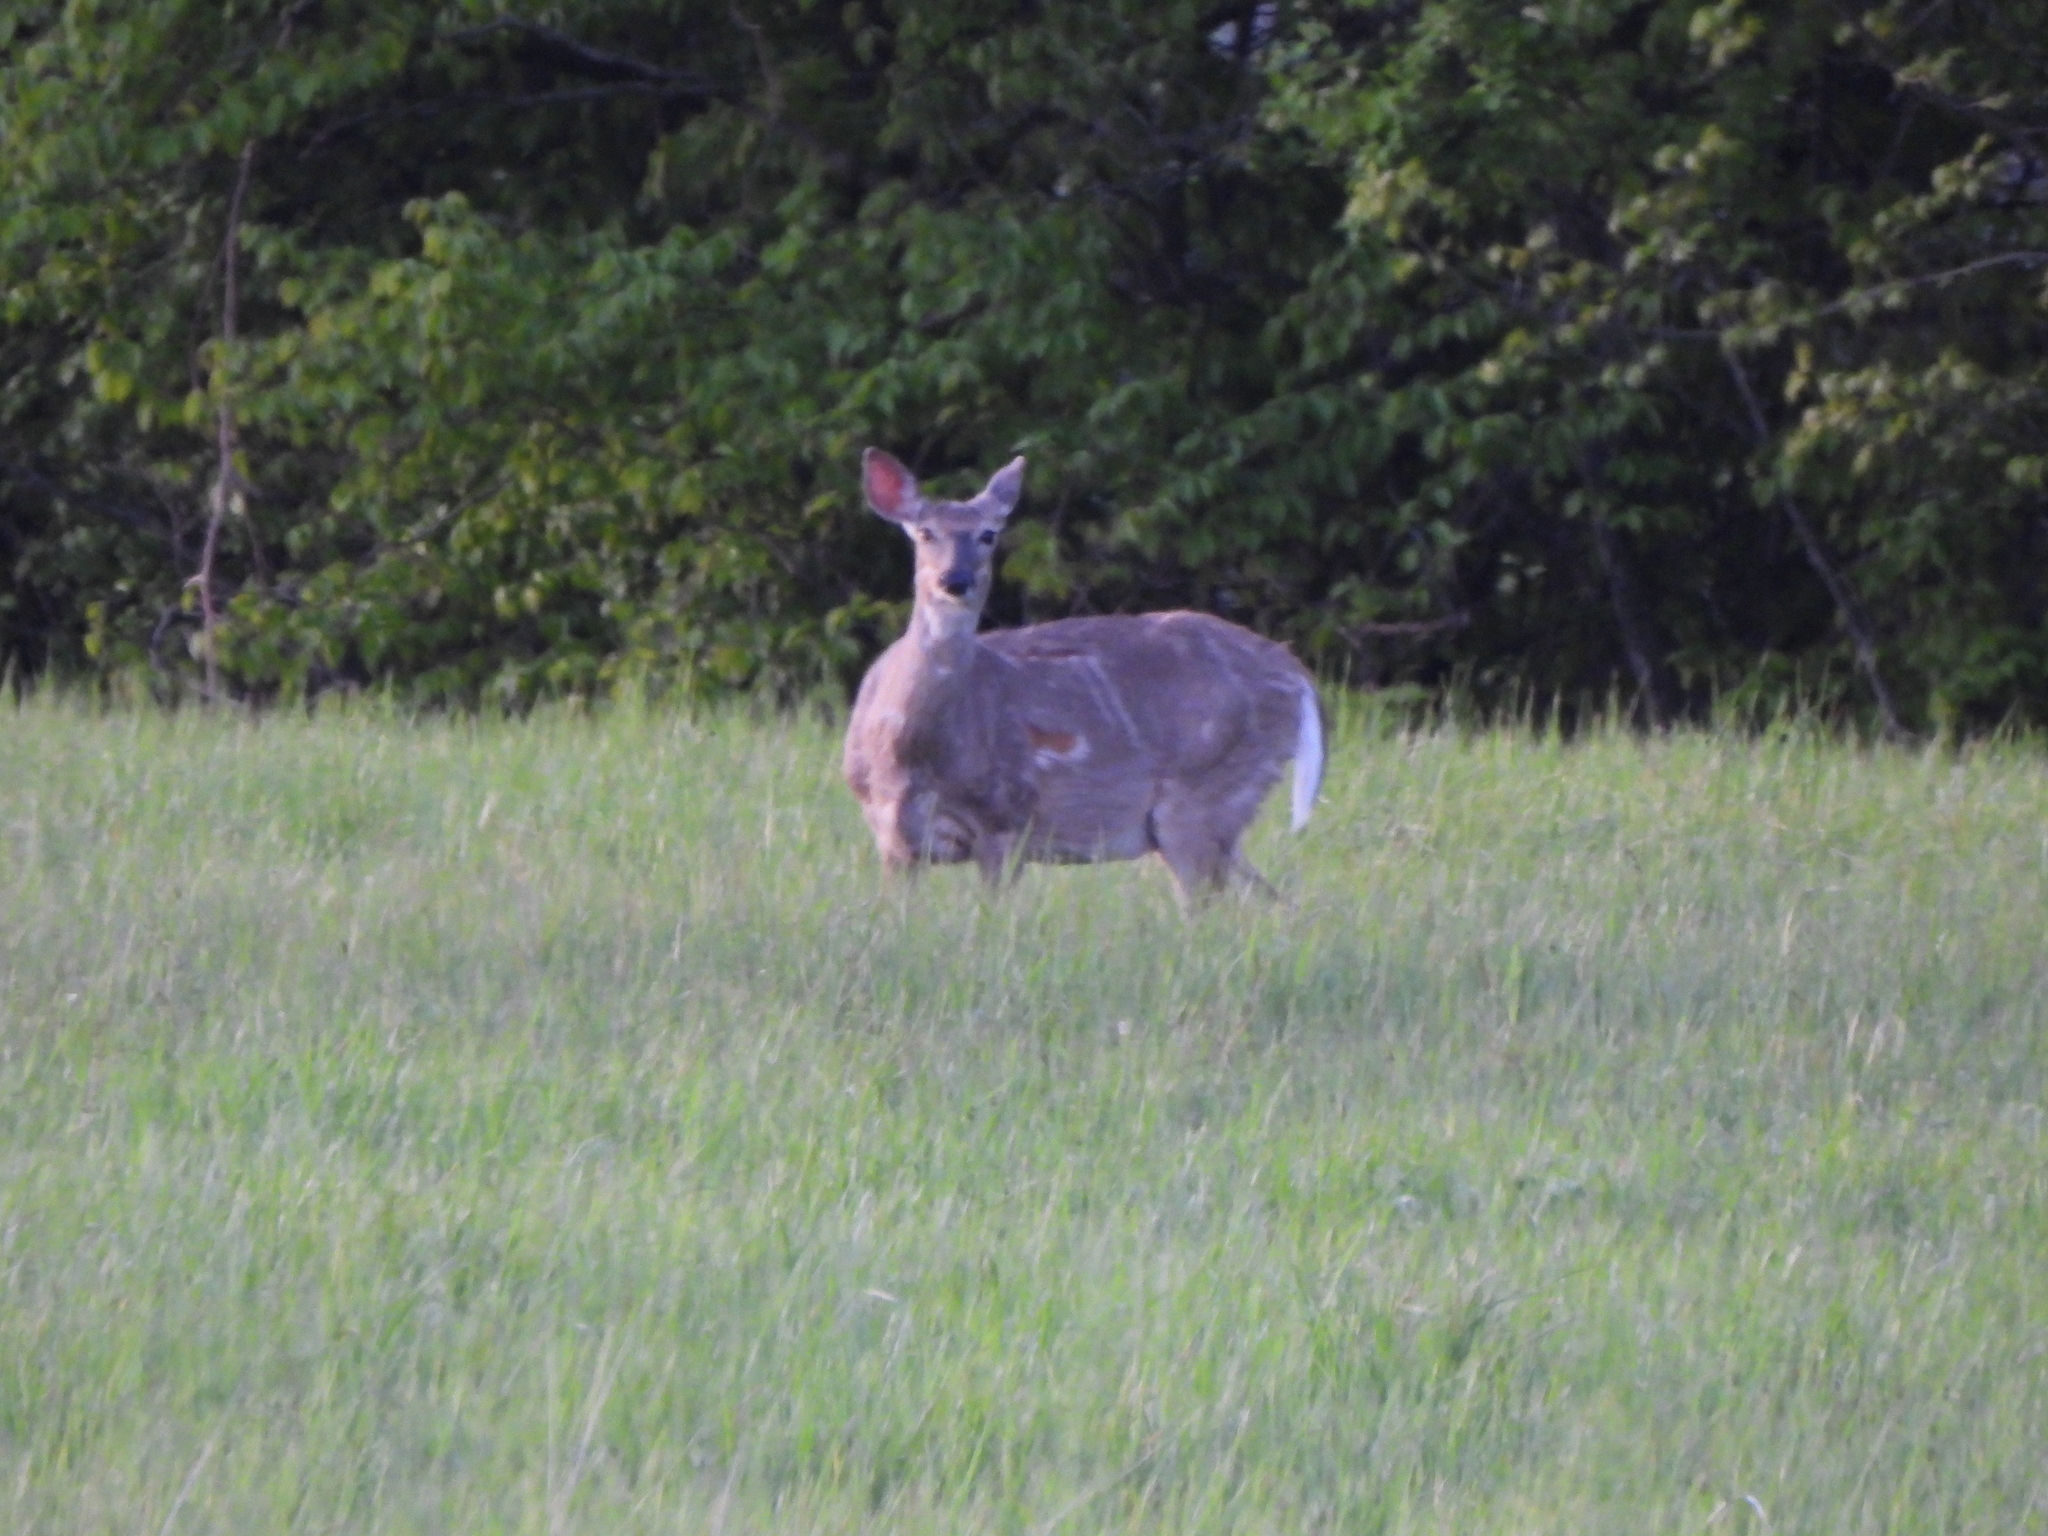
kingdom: Animalia
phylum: Chordata
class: Mammalia
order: Artiodactyla
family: Cervidae
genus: Odocoileus
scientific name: Odocoileus virginianus
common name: White-tailed deer
